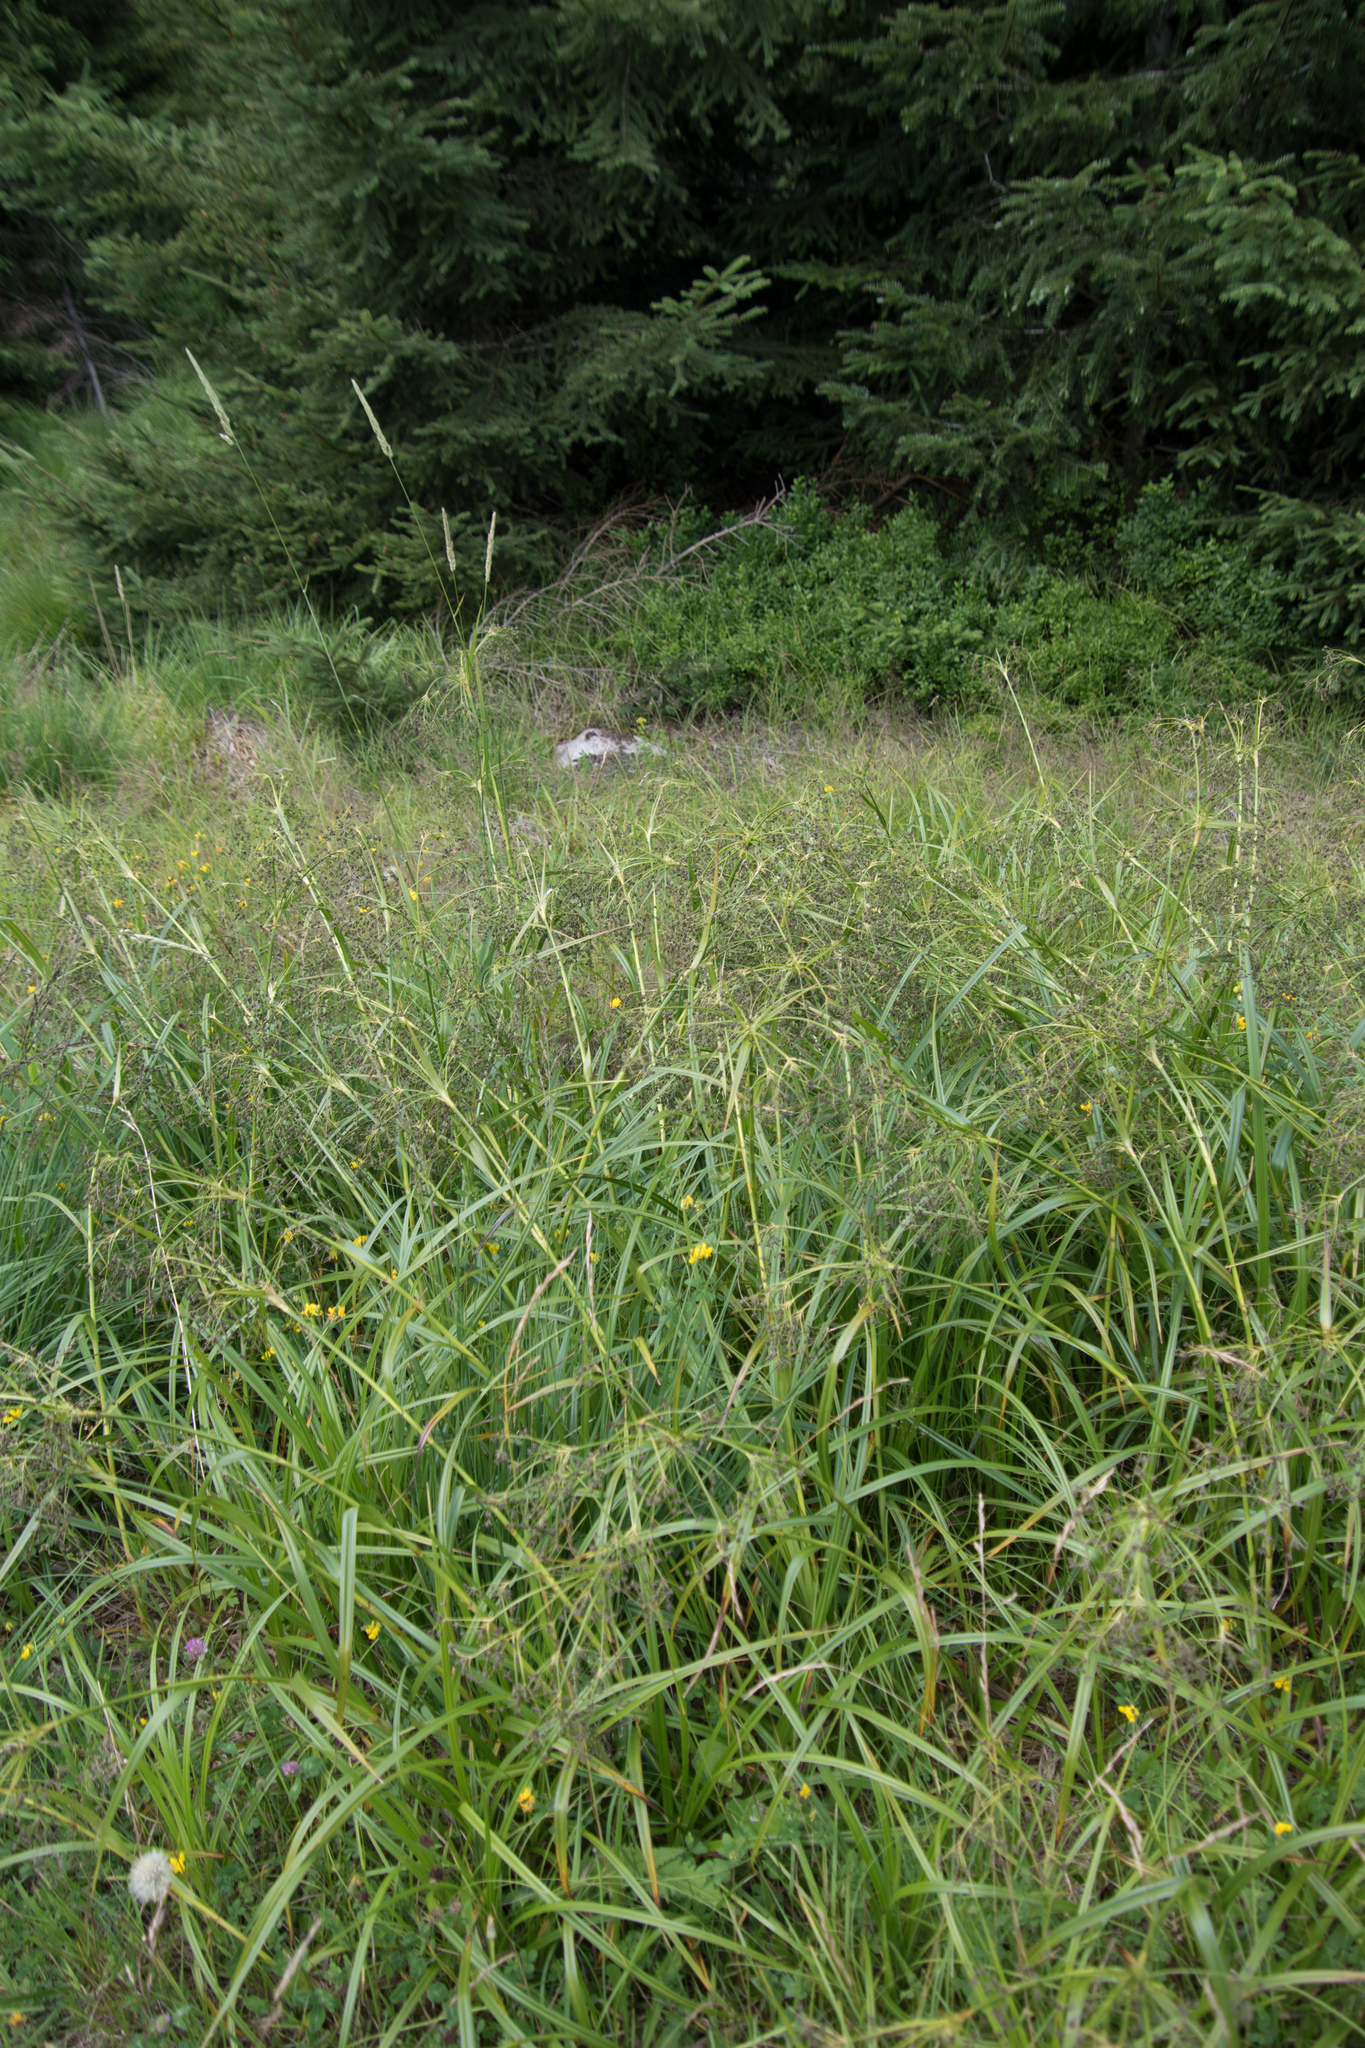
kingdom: Plantae
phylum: Tracheophyta
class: Liliopsida
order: Poales
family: Cyperaceae
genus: Scirpus
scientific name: Scirpus sylvaticus
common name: Wood club-rush
